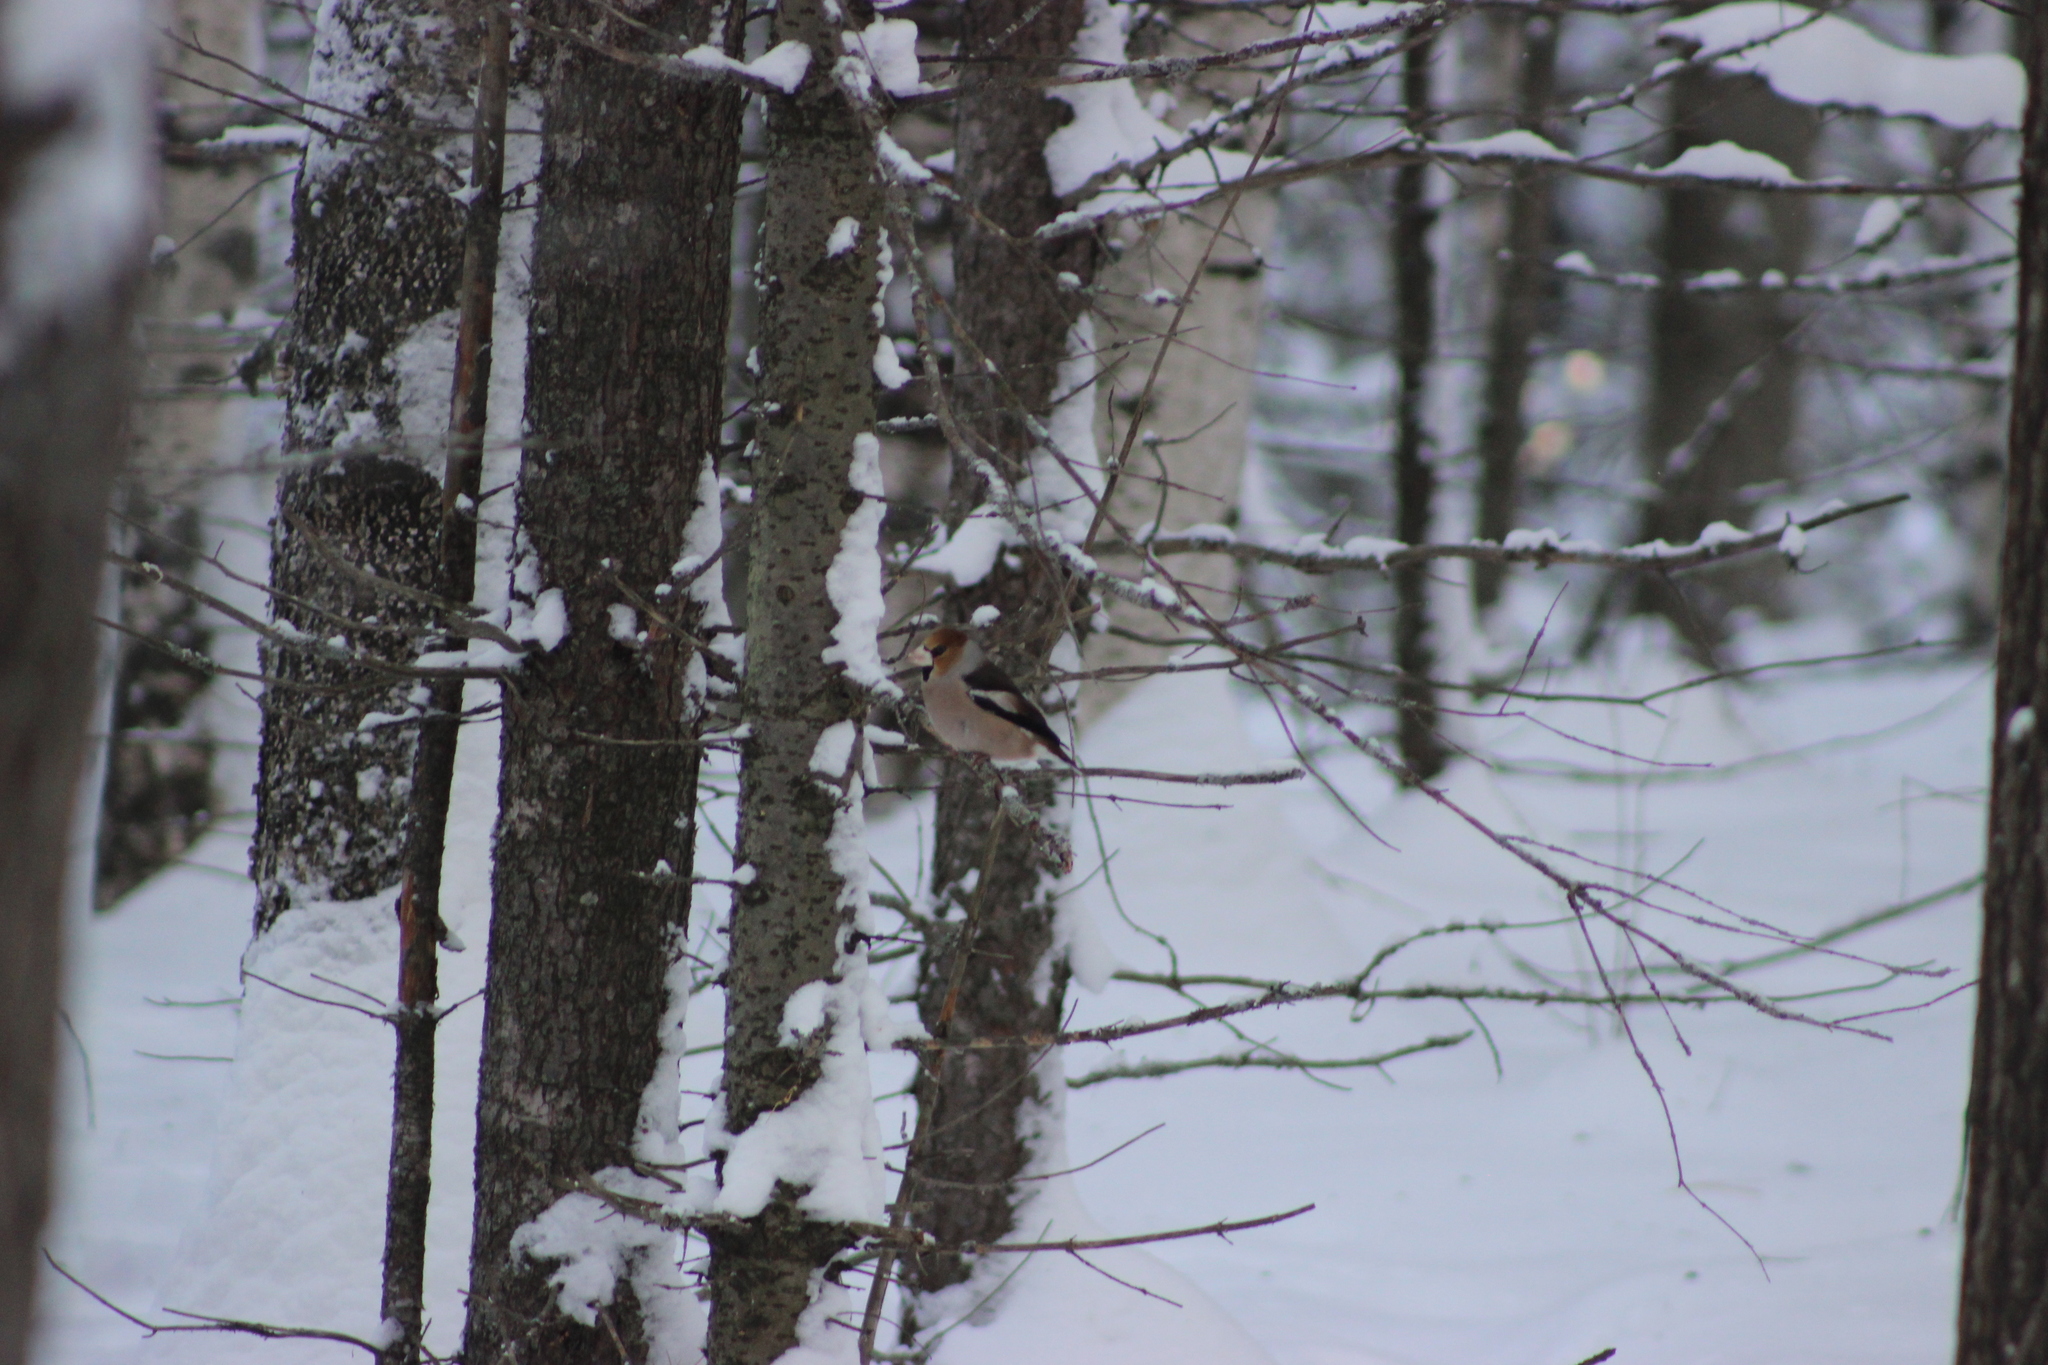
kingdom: Animalia
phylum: Chordata
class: Aves
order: Passeriformes
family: Fringillidae
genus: Coccothraustes
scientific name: Coccothraustes coccothraustes
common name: Hawfinch
